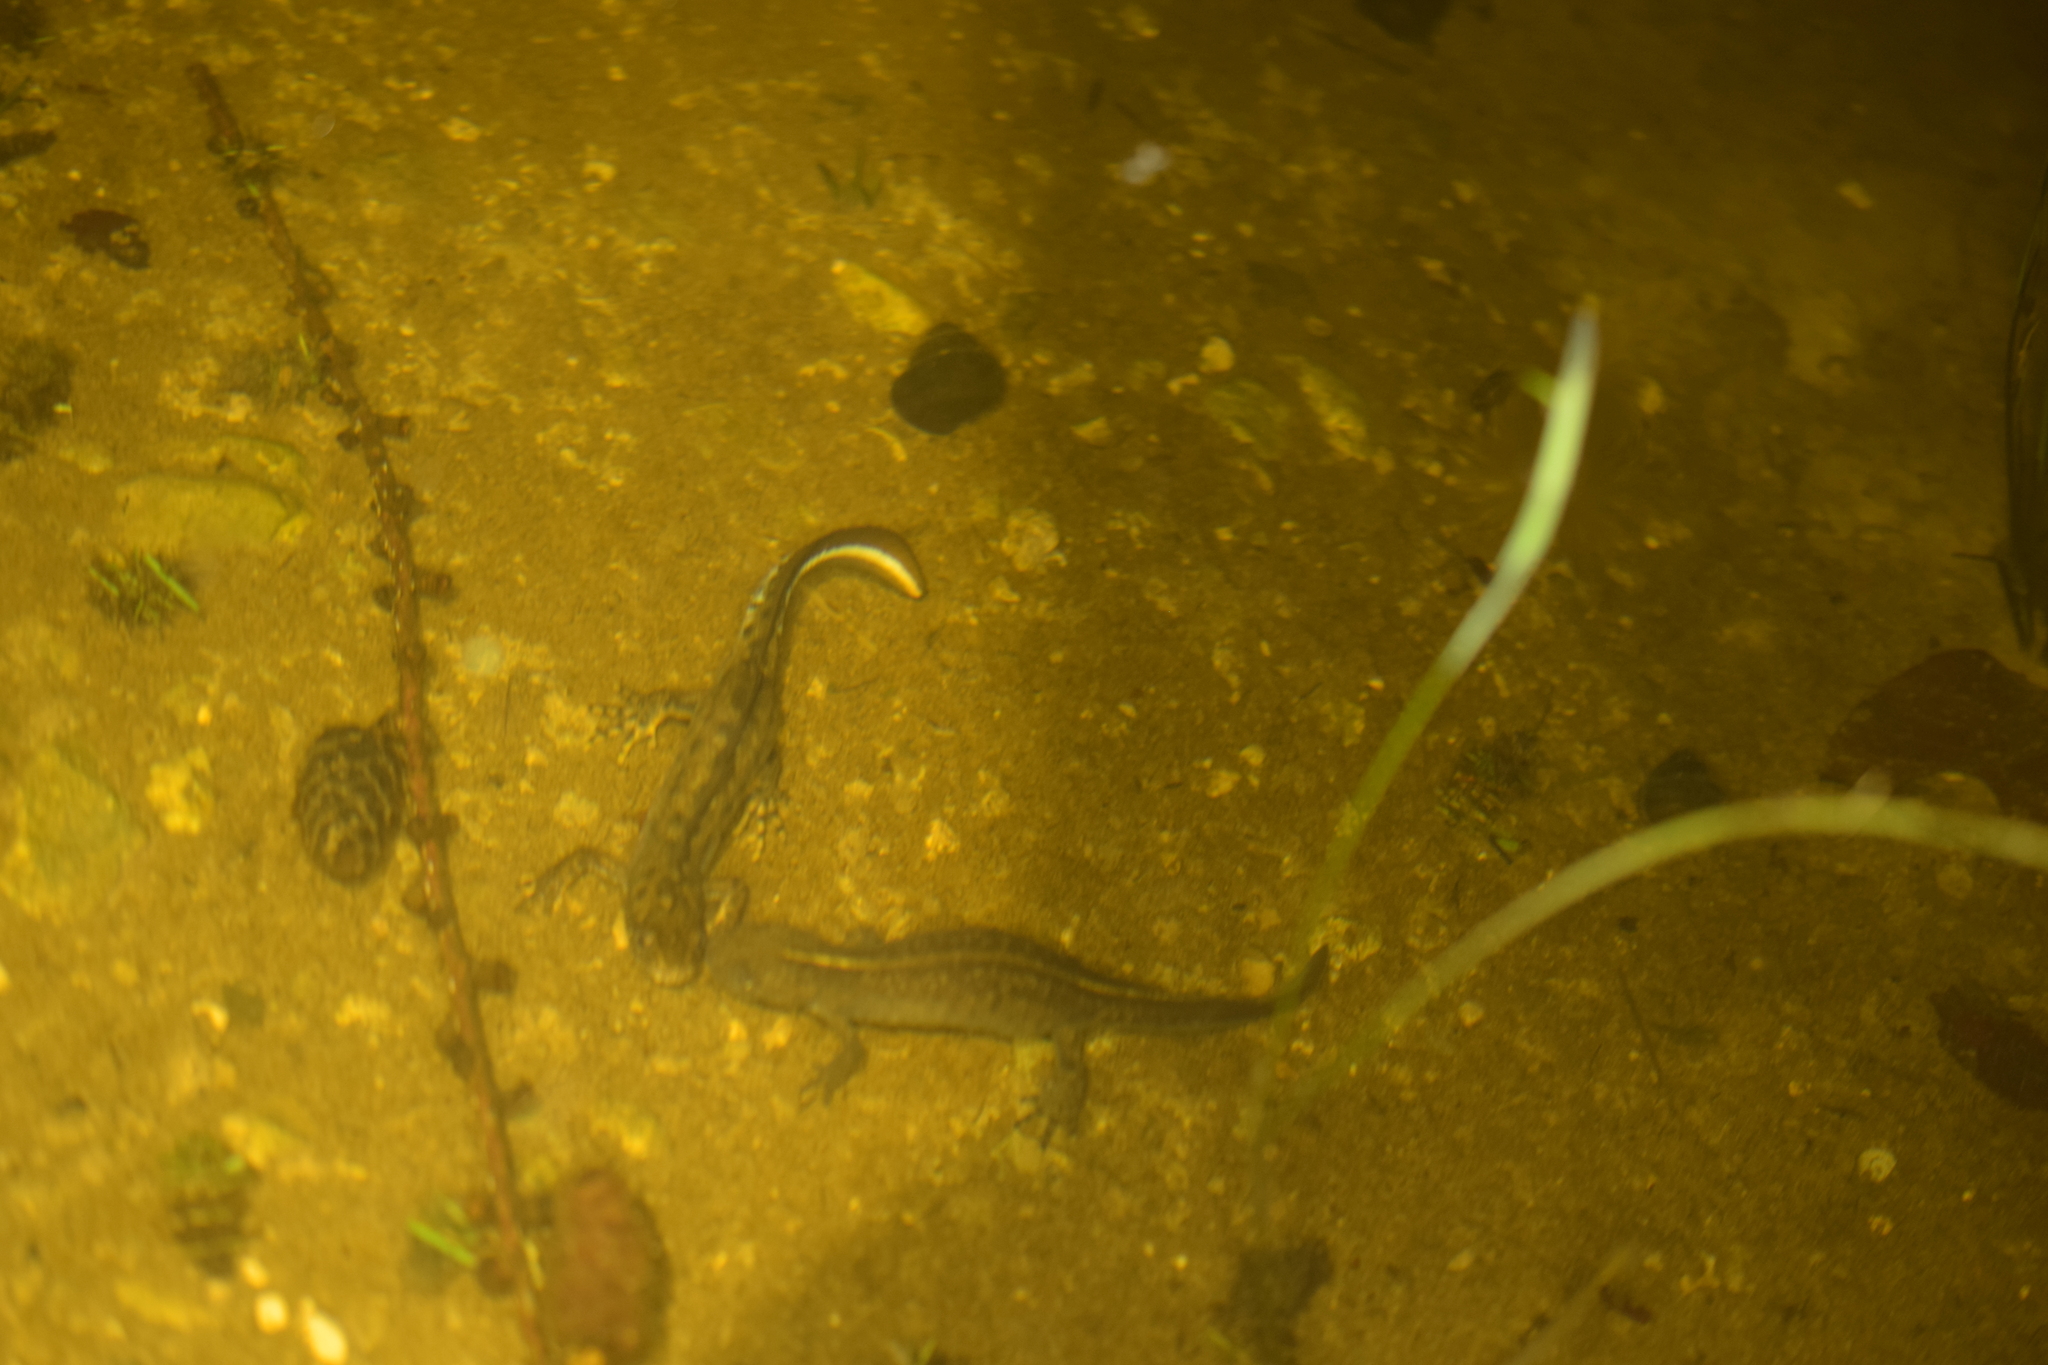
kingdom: Animalia
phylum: Chordata
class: Amphibia
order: Caudata
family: Salamandridae
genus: Triturus
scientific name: Triturus carnifex
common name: Italian crested newt
